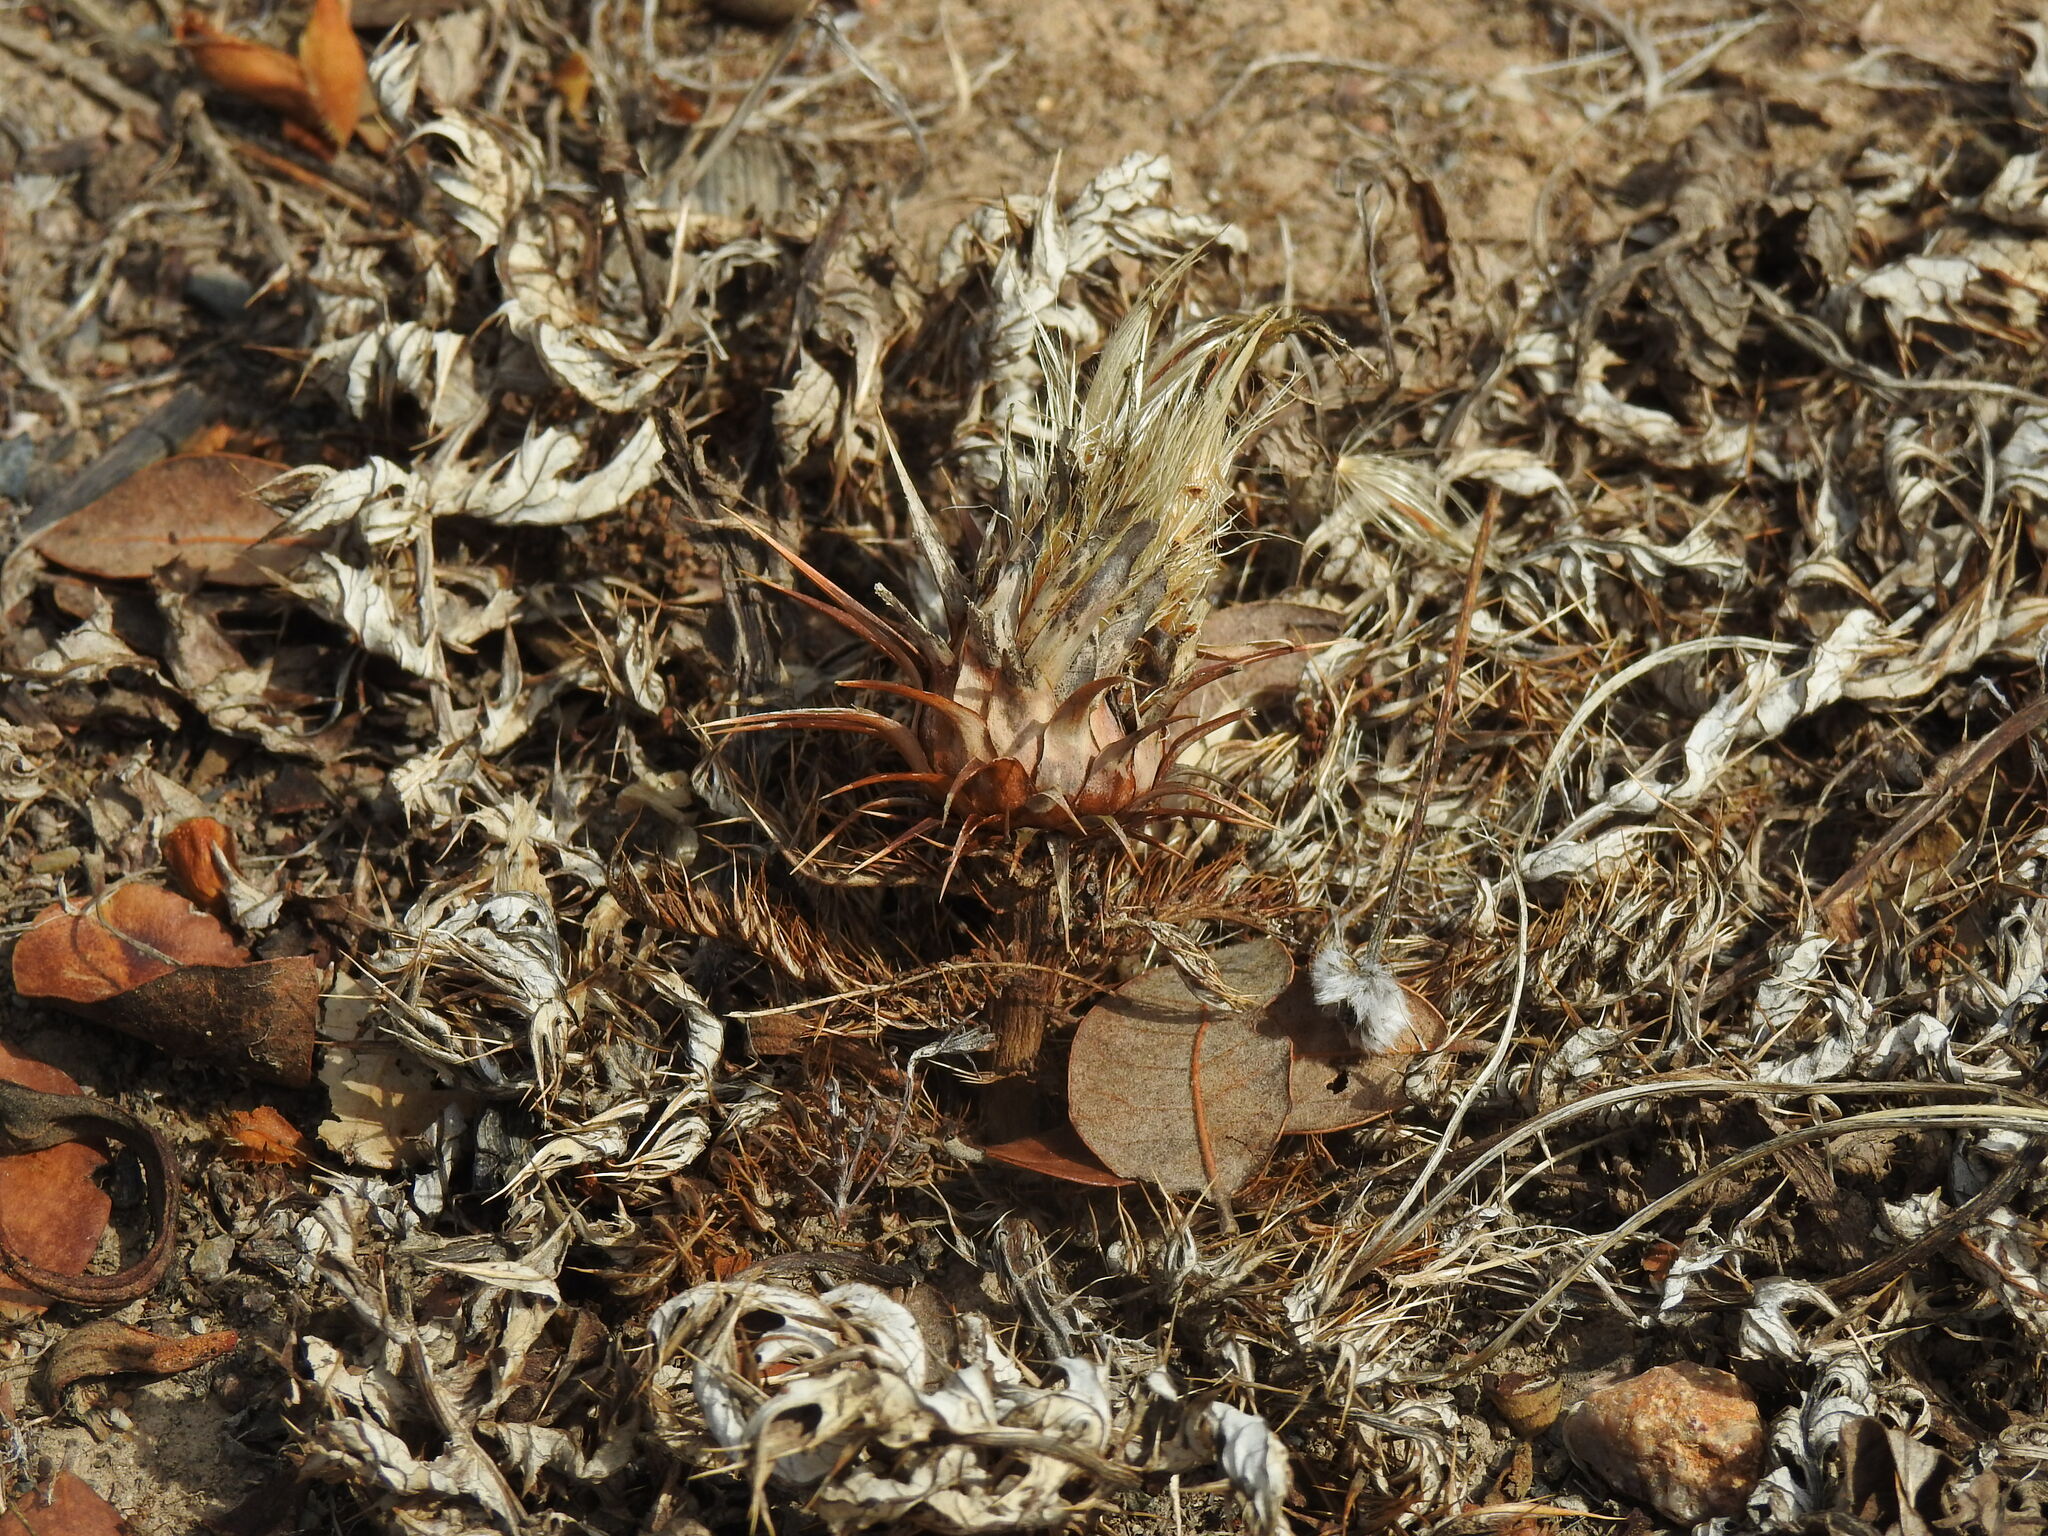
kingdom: Plantae
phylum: Tracheophyta
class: Magnoliopsida
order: Asterales
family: Asteraceae
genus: Cynara
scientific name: Cynara algarbiensis
